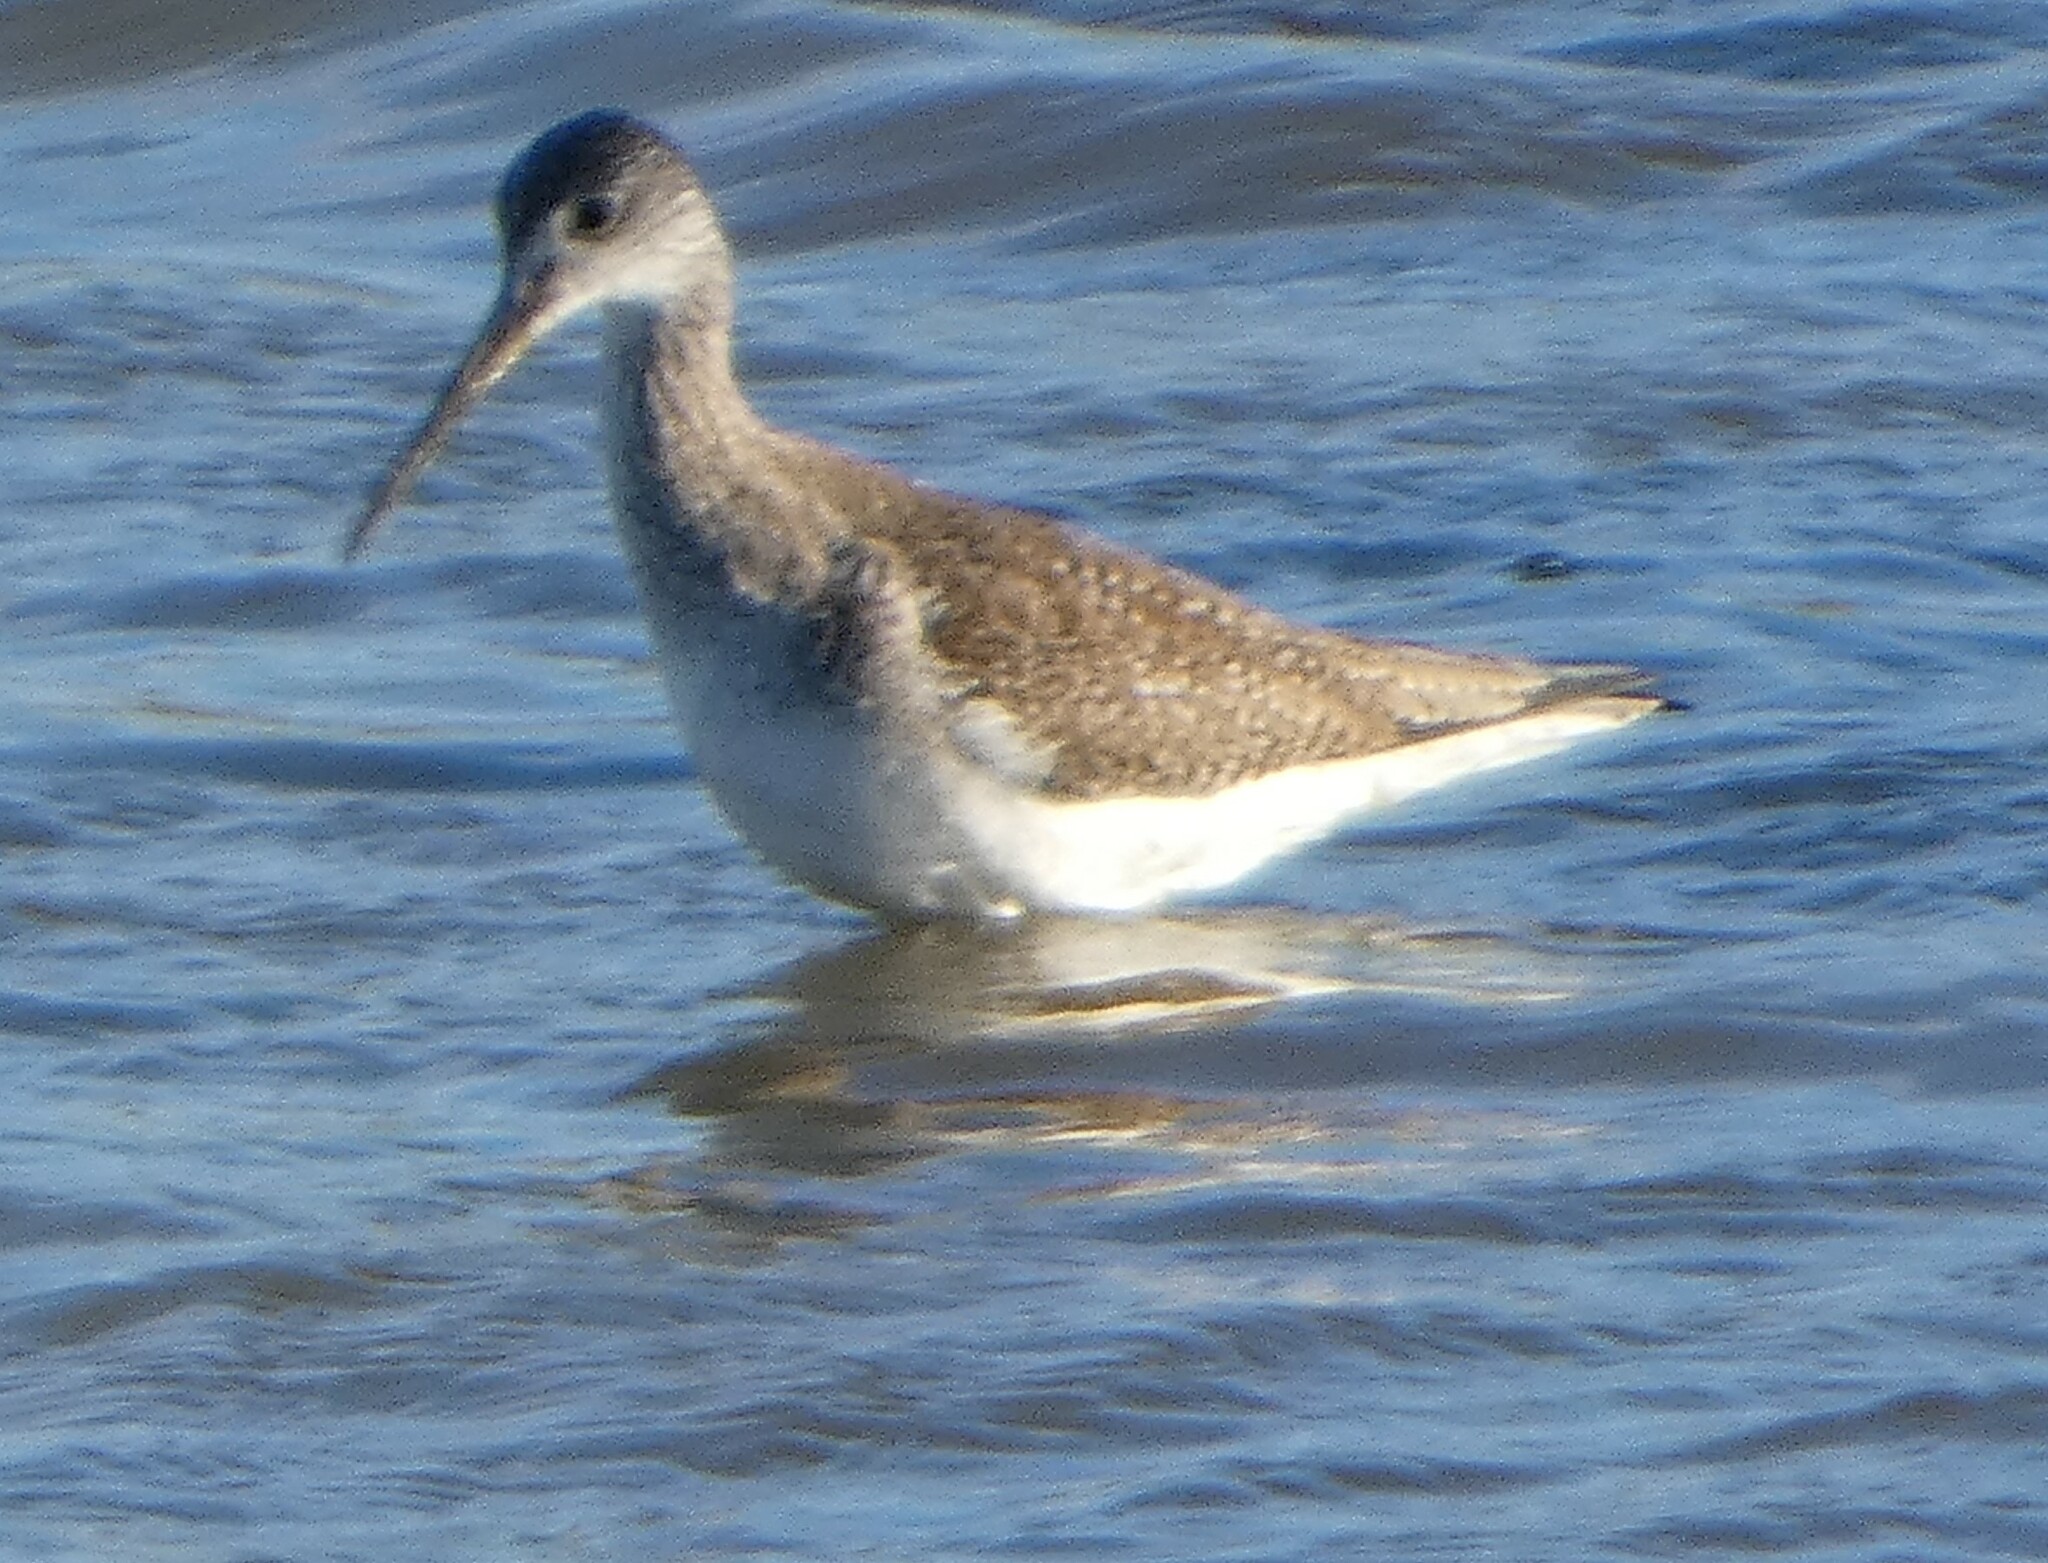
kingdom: Animalia
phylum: Chordata
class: Aves
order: Charadriiformes
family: Scolopacidae
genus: Tringa
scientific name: Tringa melanoleuca
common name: Greater yellowlegs
